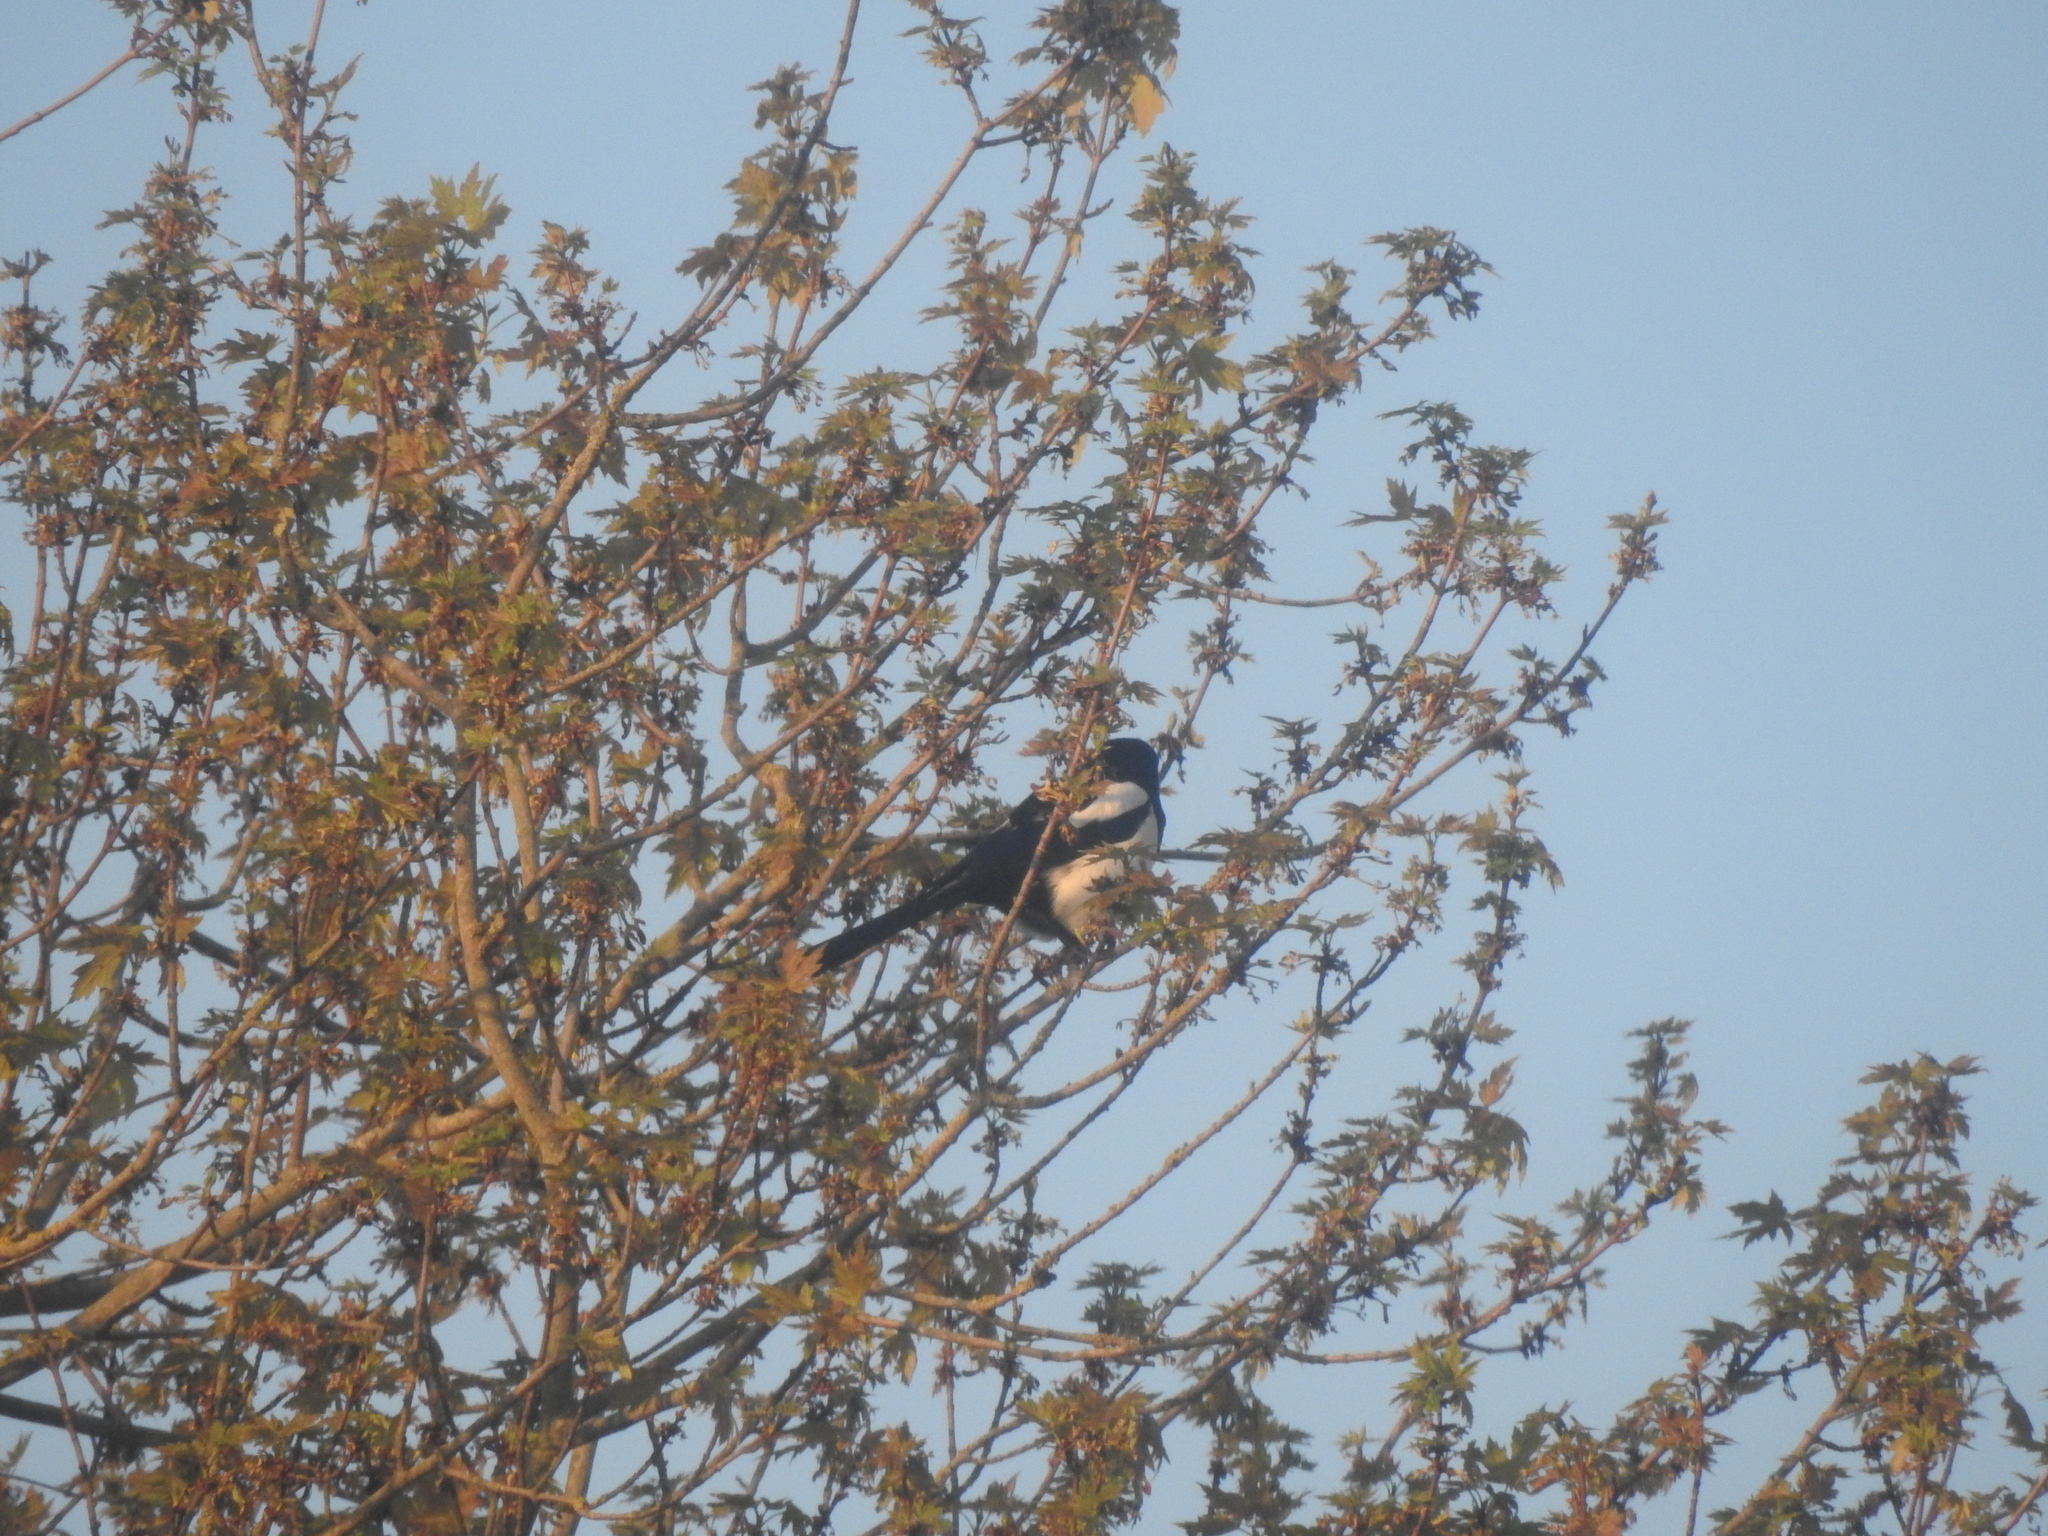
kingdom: Animalia
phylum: Chordata
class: Aves
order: Passeriformes
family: Corvidae
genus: Pica
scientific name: Pica pica
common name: Eurasian magpie
